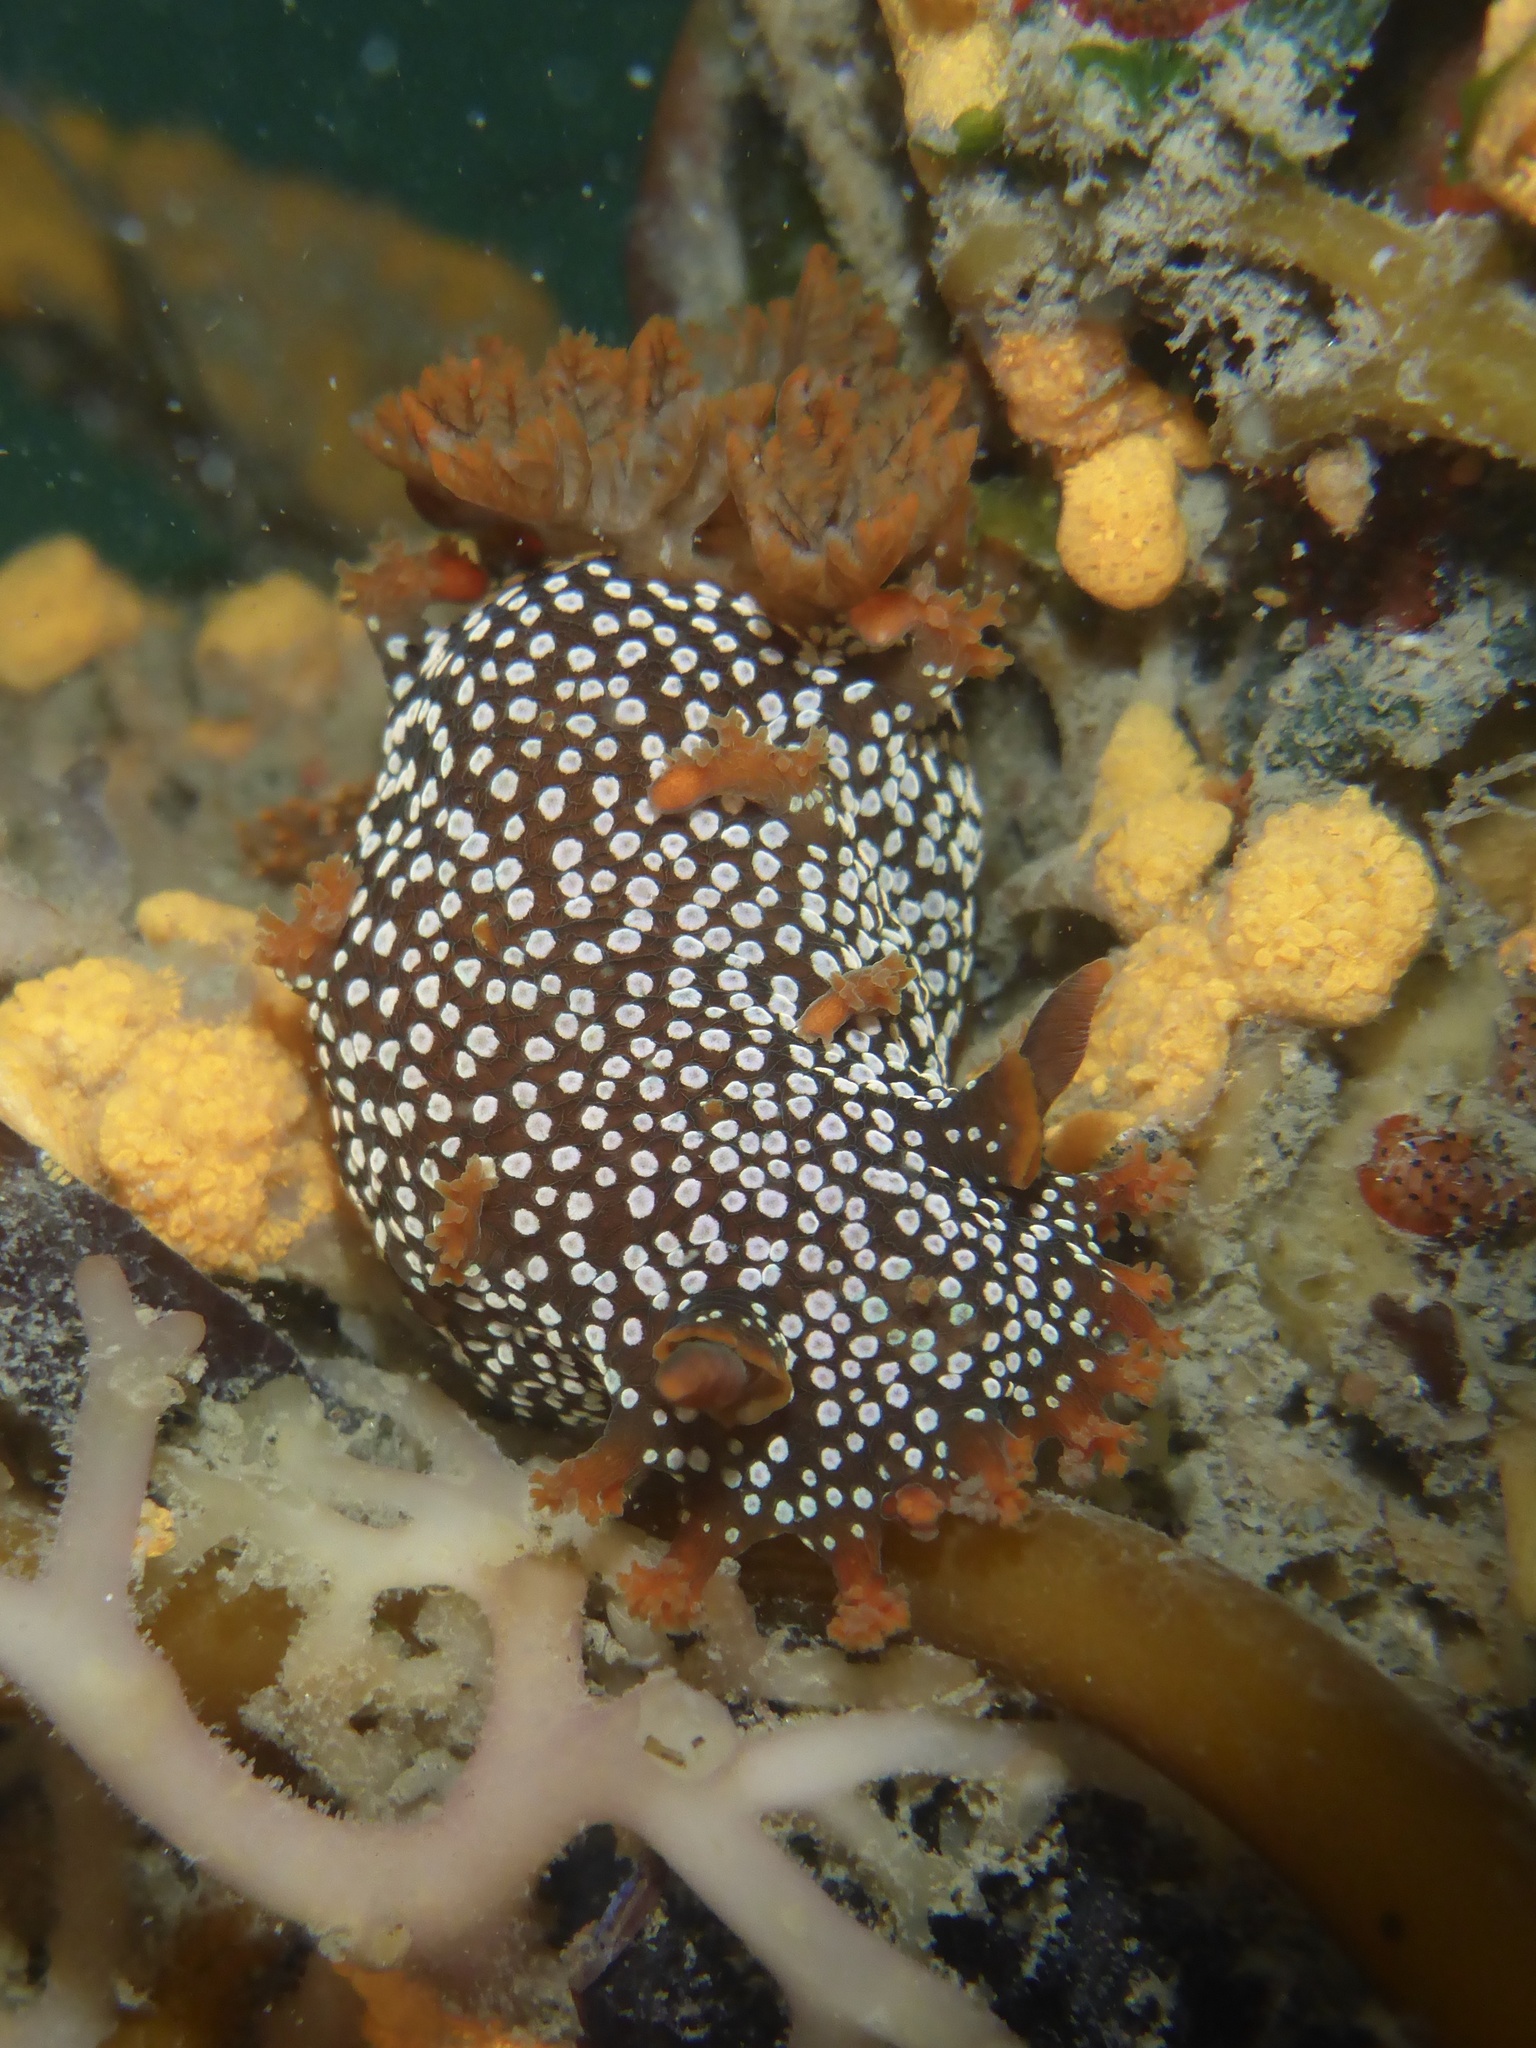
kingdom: Animalia
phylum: Mollusca
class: Gastropoda
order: Nudibranchia
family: Polyceridae
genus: Triopha
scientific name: Triopha maculata
